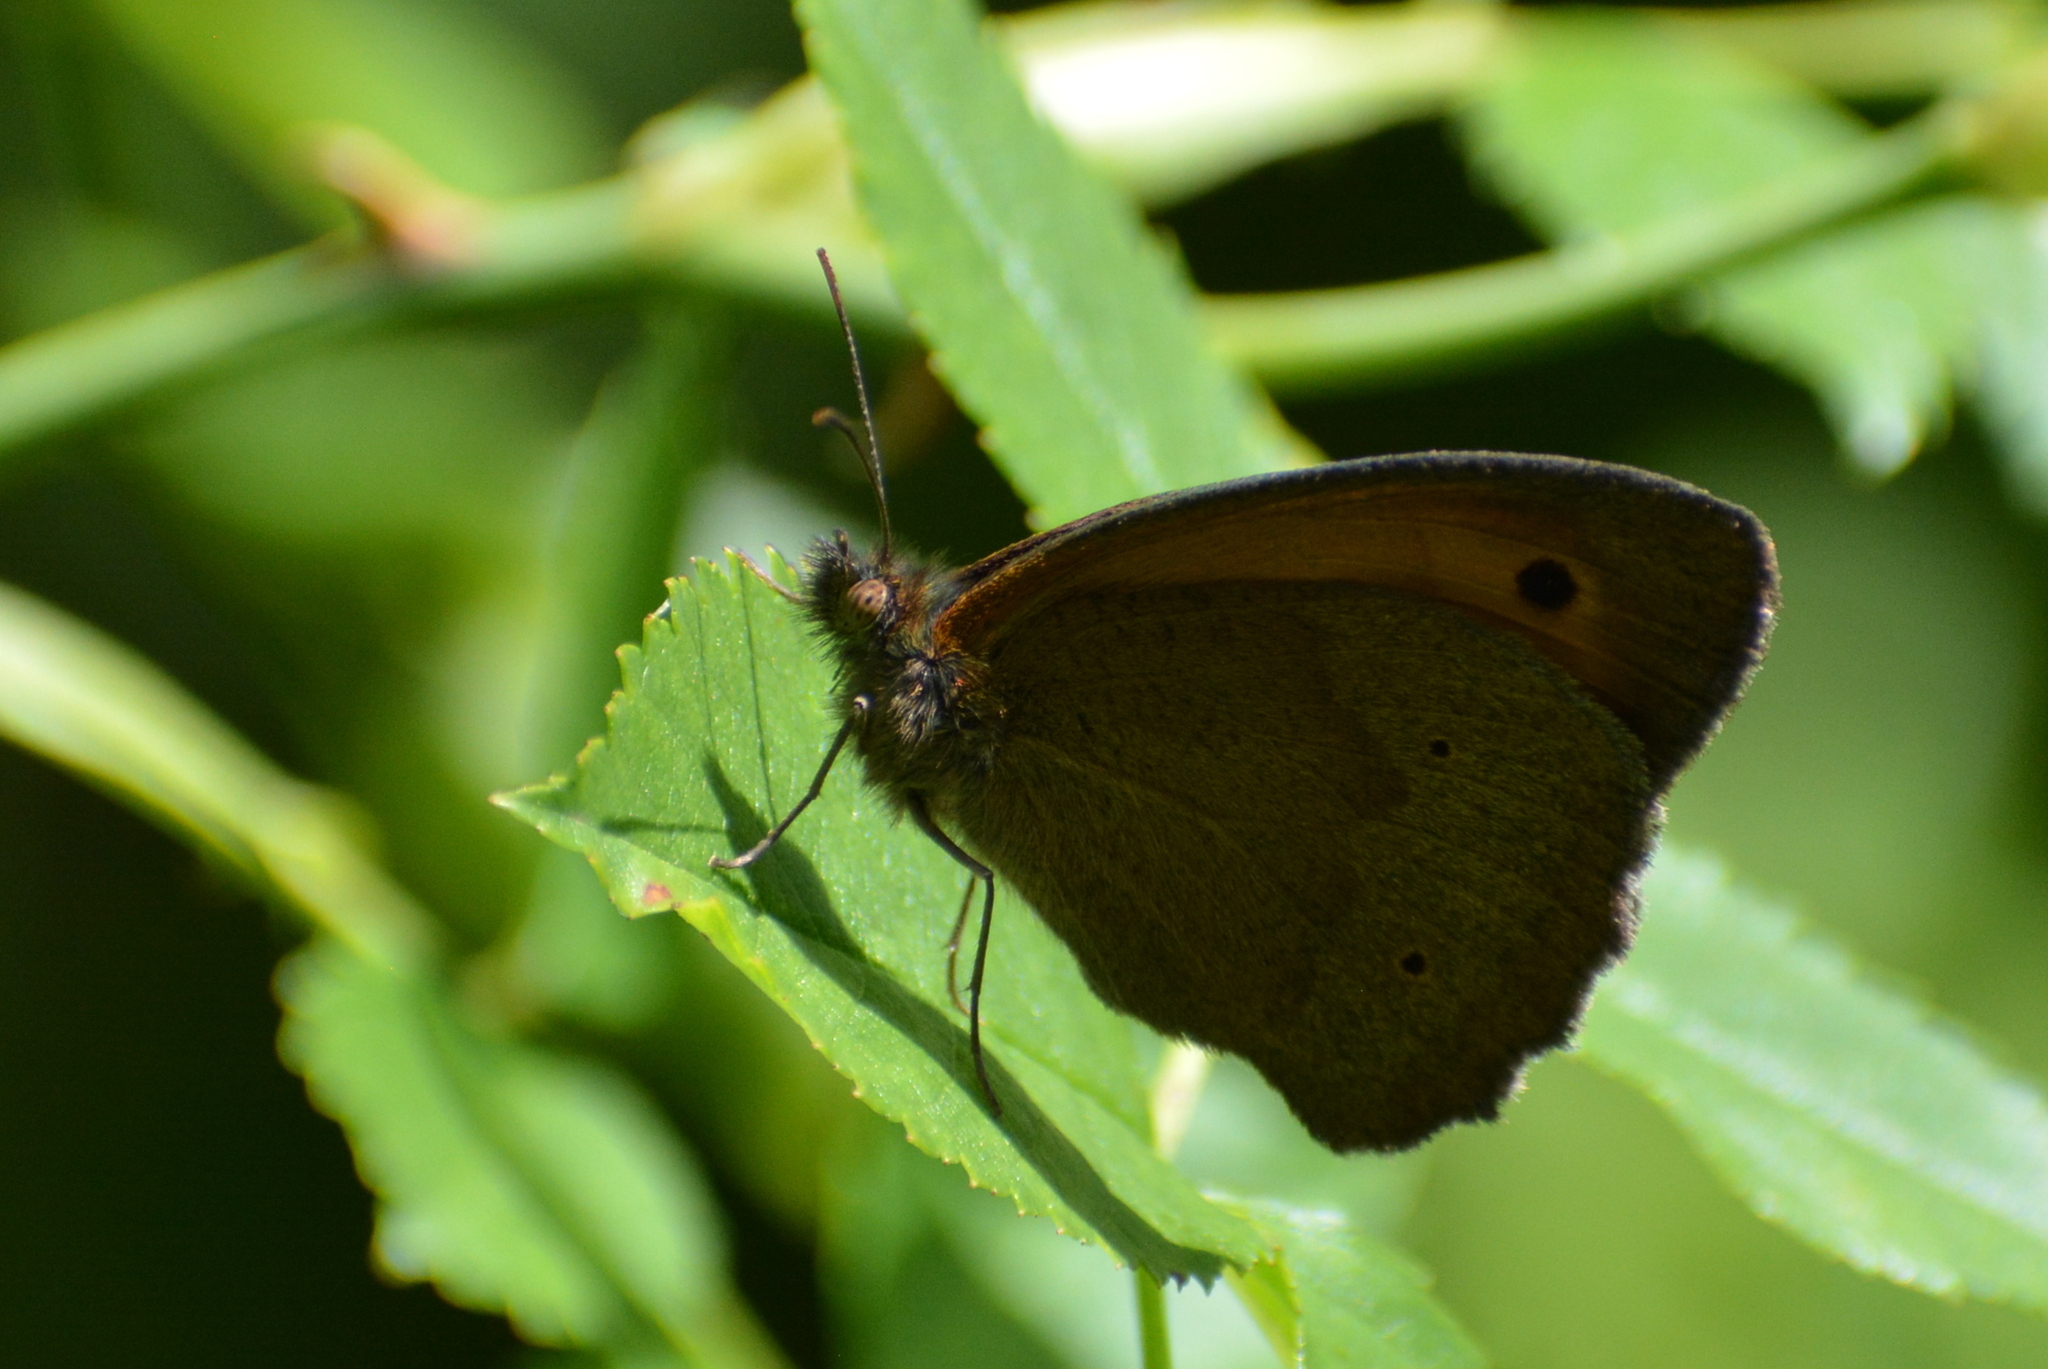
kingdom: Animalia
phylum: Arthropoda
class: Insecta
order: Lepidoptera
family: Nymphalidae
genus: Maniola
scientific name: Maniola jurtina
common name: Meadow brown
